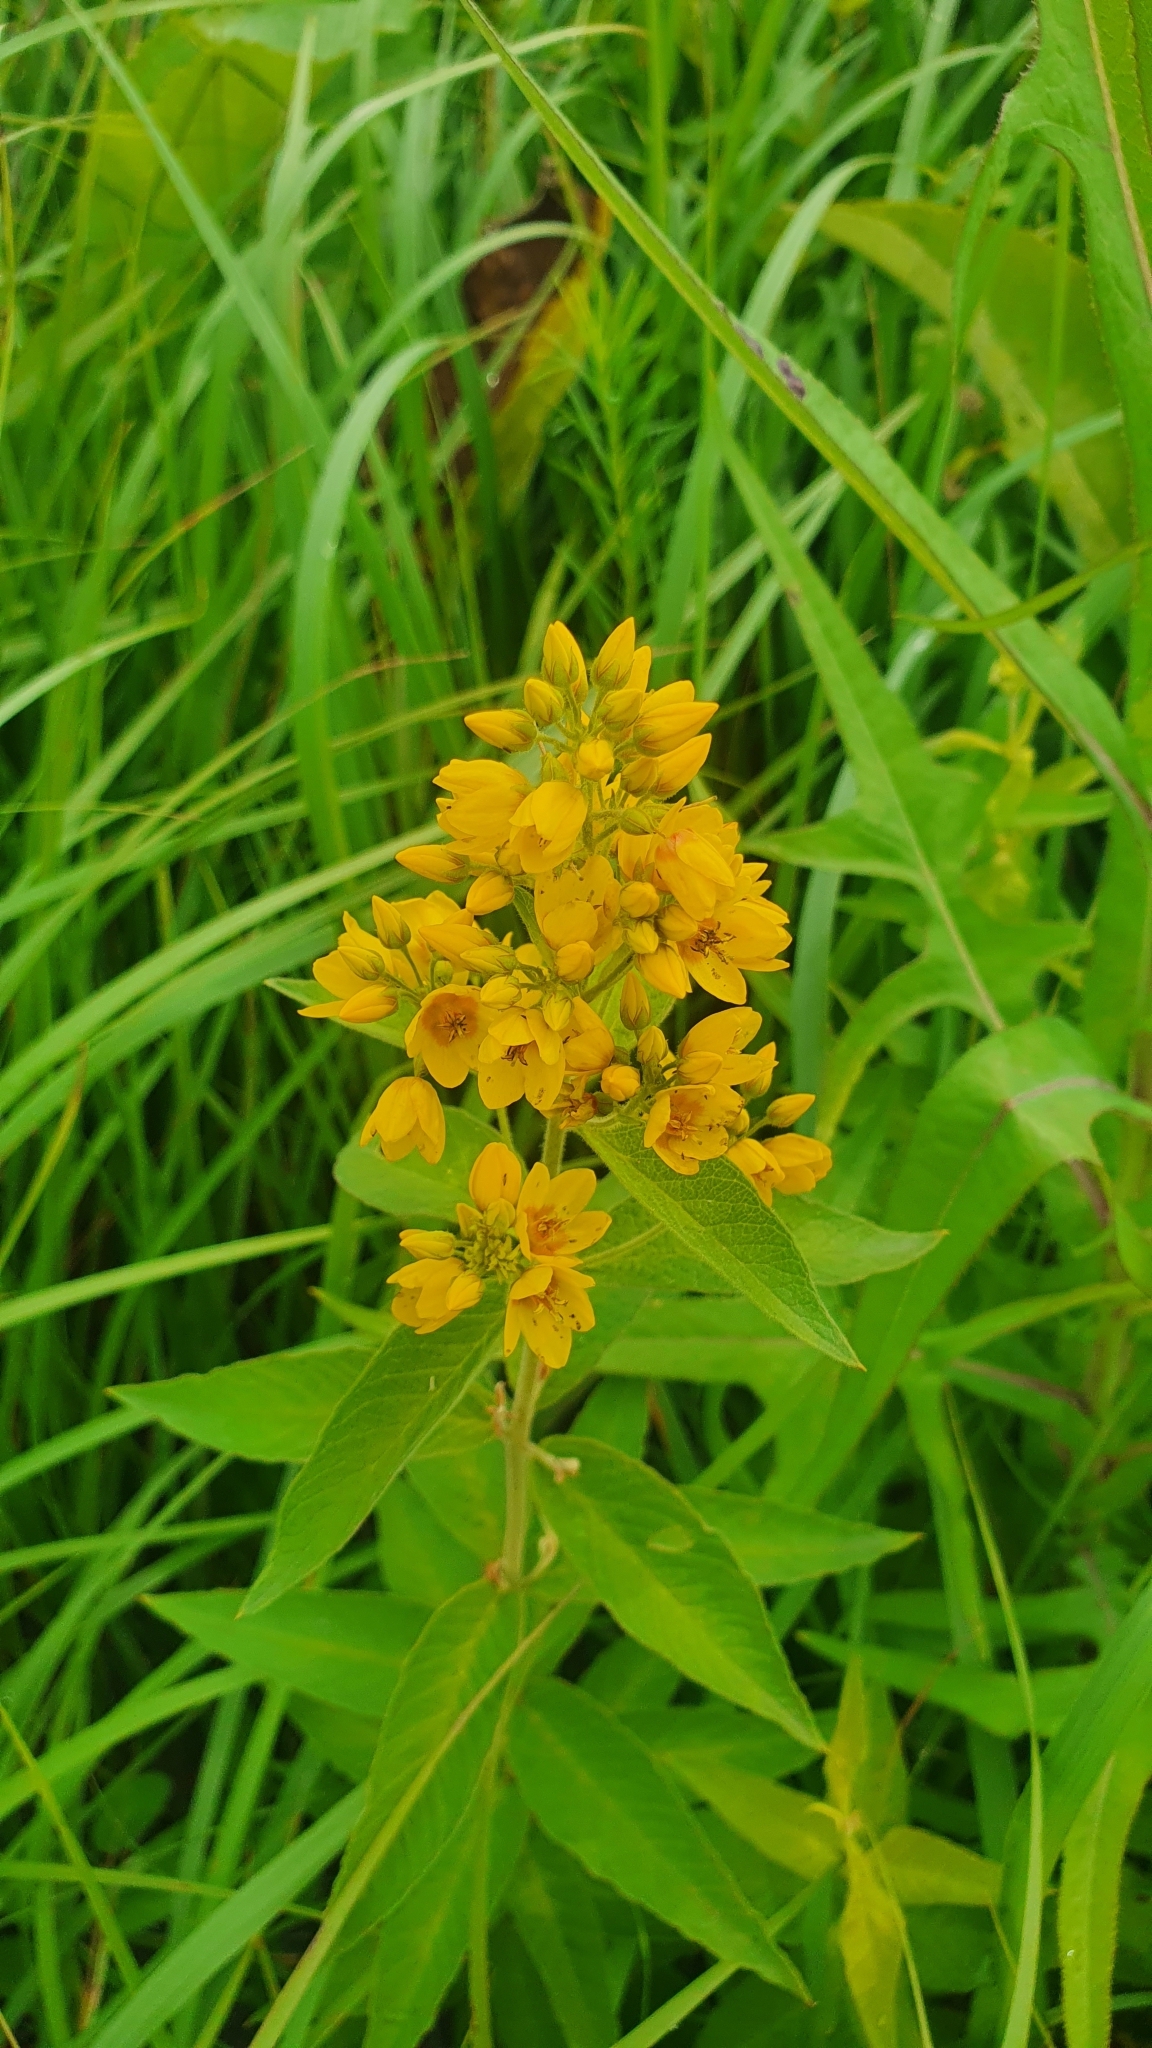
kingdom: Plantae
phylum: Tracheophyta
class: Magnoliopsida
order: Ericales
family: Primulaceae
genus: Lysimachia
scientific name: Lysimachia vulgaris
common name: Yellow loosestrife
